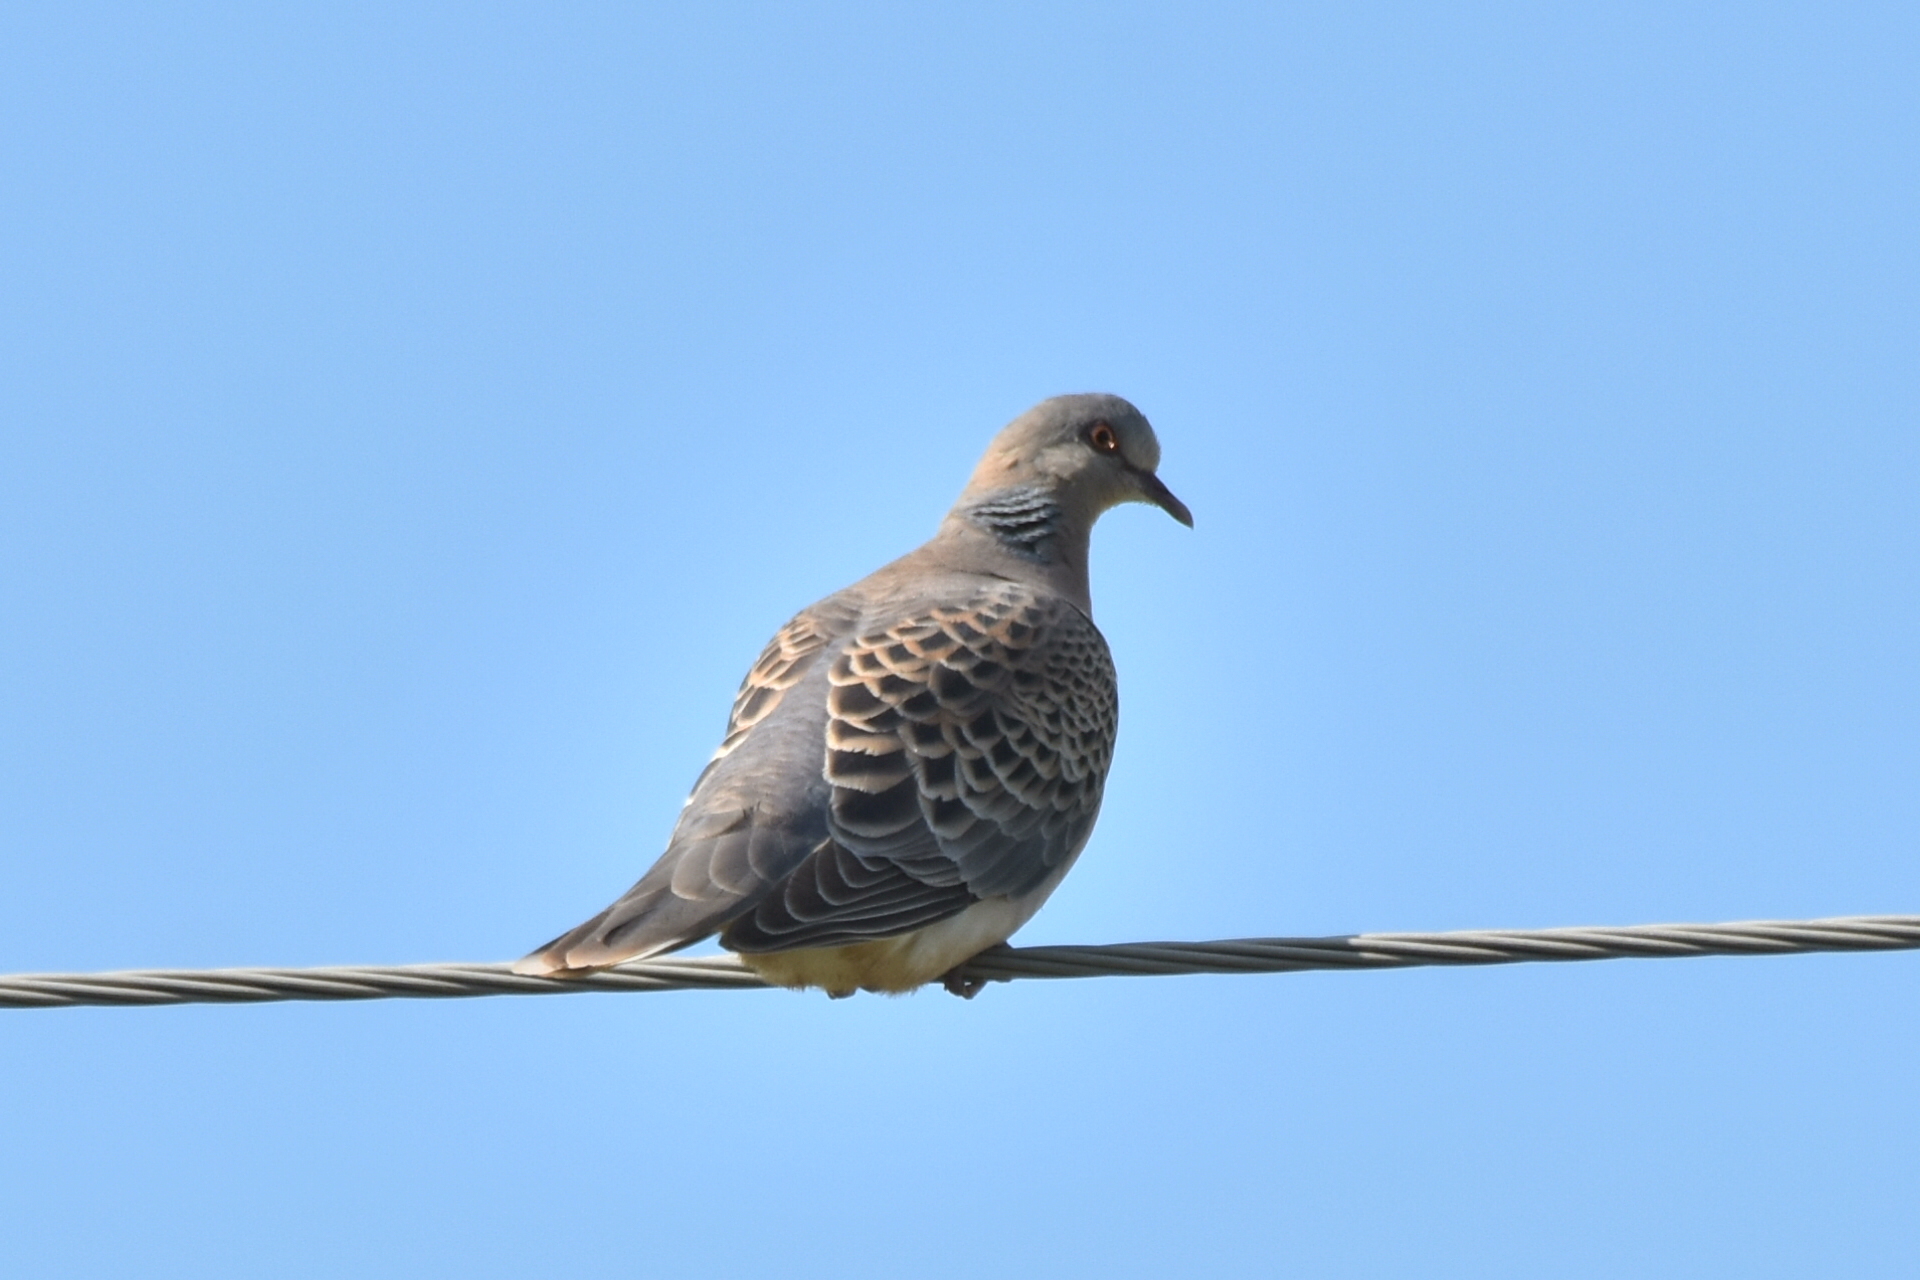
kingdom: Animalia
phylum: Chordata
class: Aves
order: Columbiformes
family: Columbidae
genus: Streptopelia
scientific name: Streptopelia orientalis
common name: Oriental turtle dove
